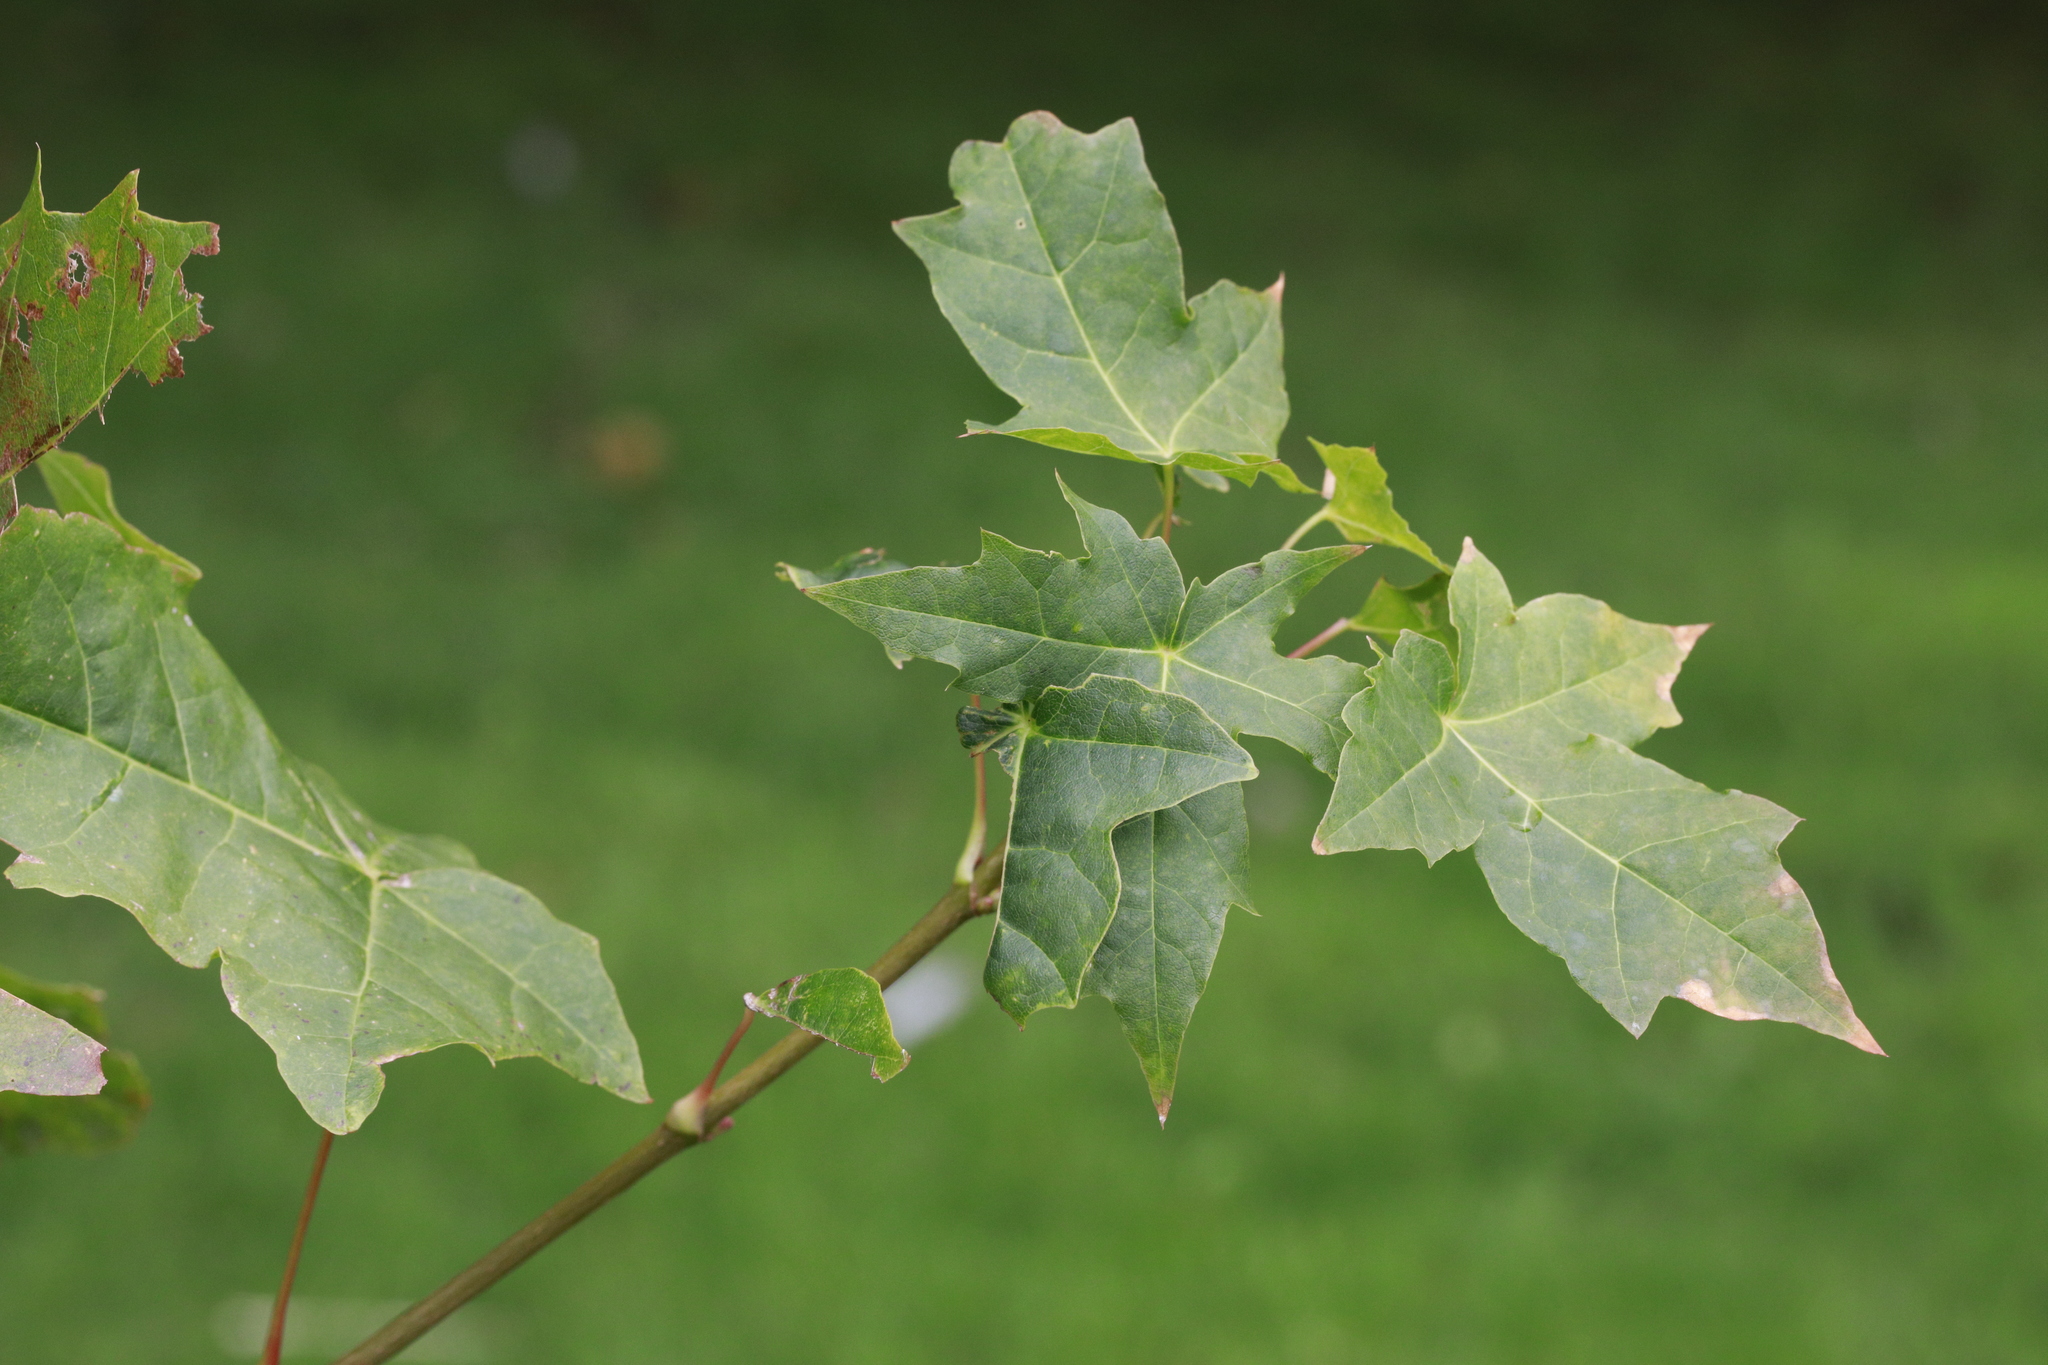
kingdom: Plantae
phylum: Tracheophyta
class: Magnoliopsida
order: Sapindales
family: Sapindaceae
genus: Acer
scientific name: Acer platanoides
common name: Norway maple
